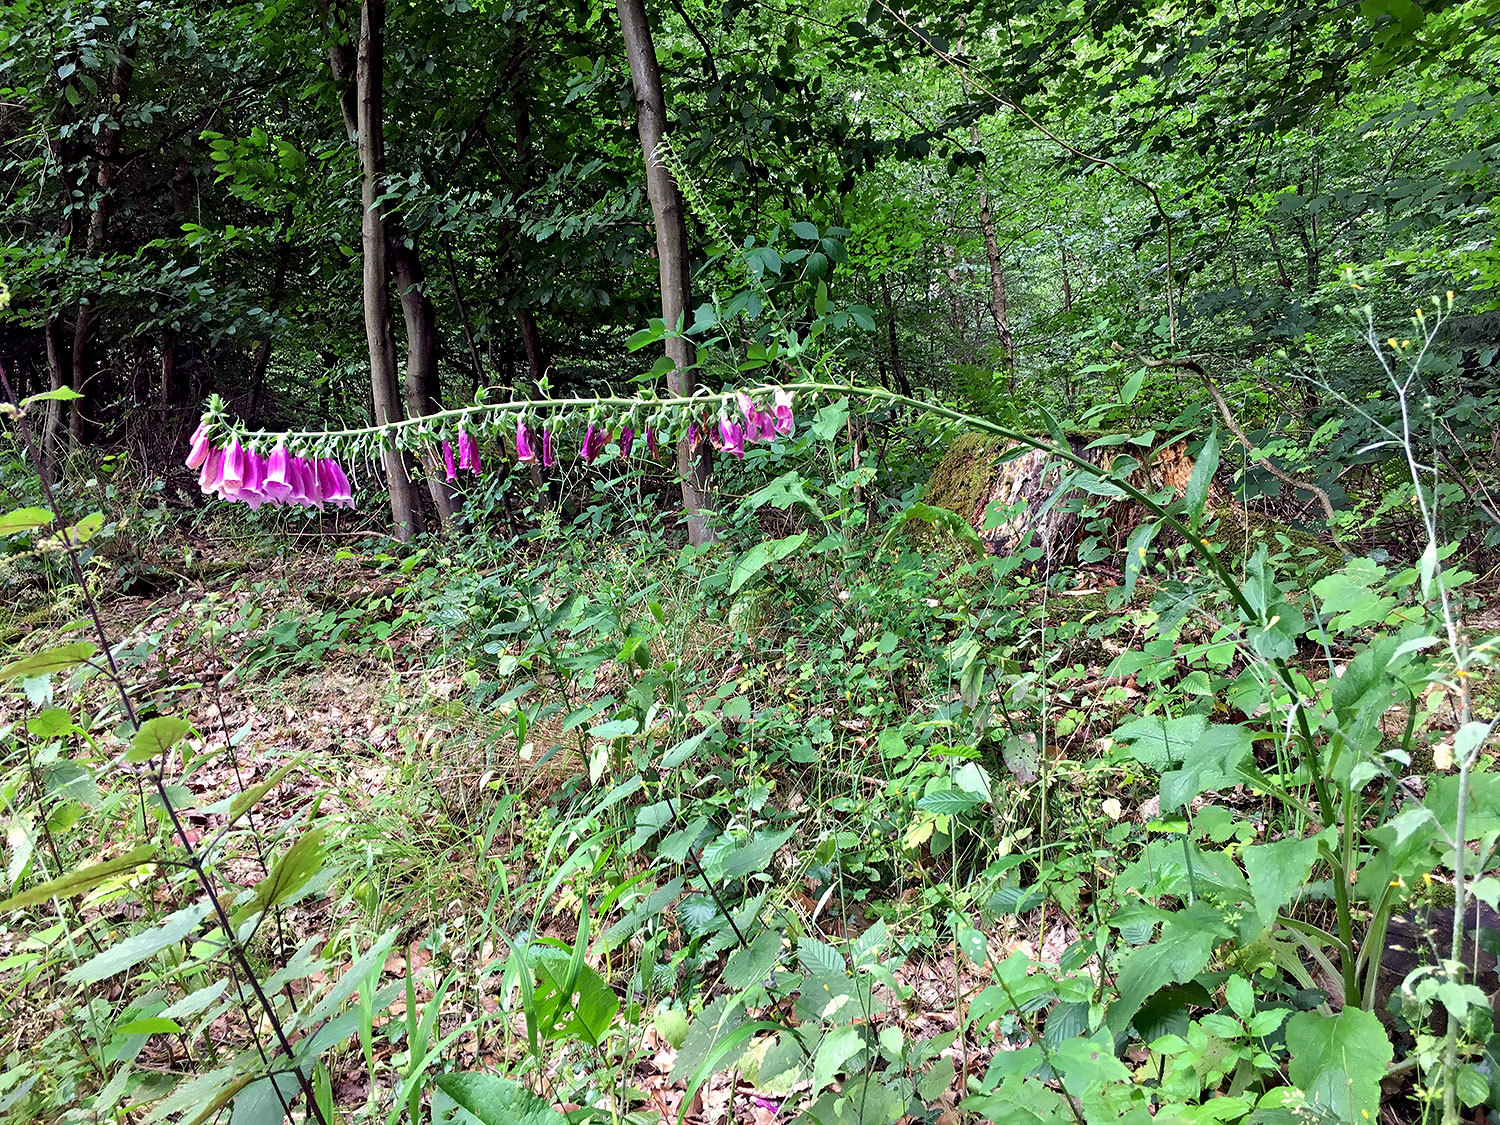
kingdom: Plantae
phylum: Tracheophyta
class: Magnoliopsida
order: Lamiales
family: Plantaginaceae
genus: Digitalis
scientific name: Digitalis purpurea
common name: Foxglove
